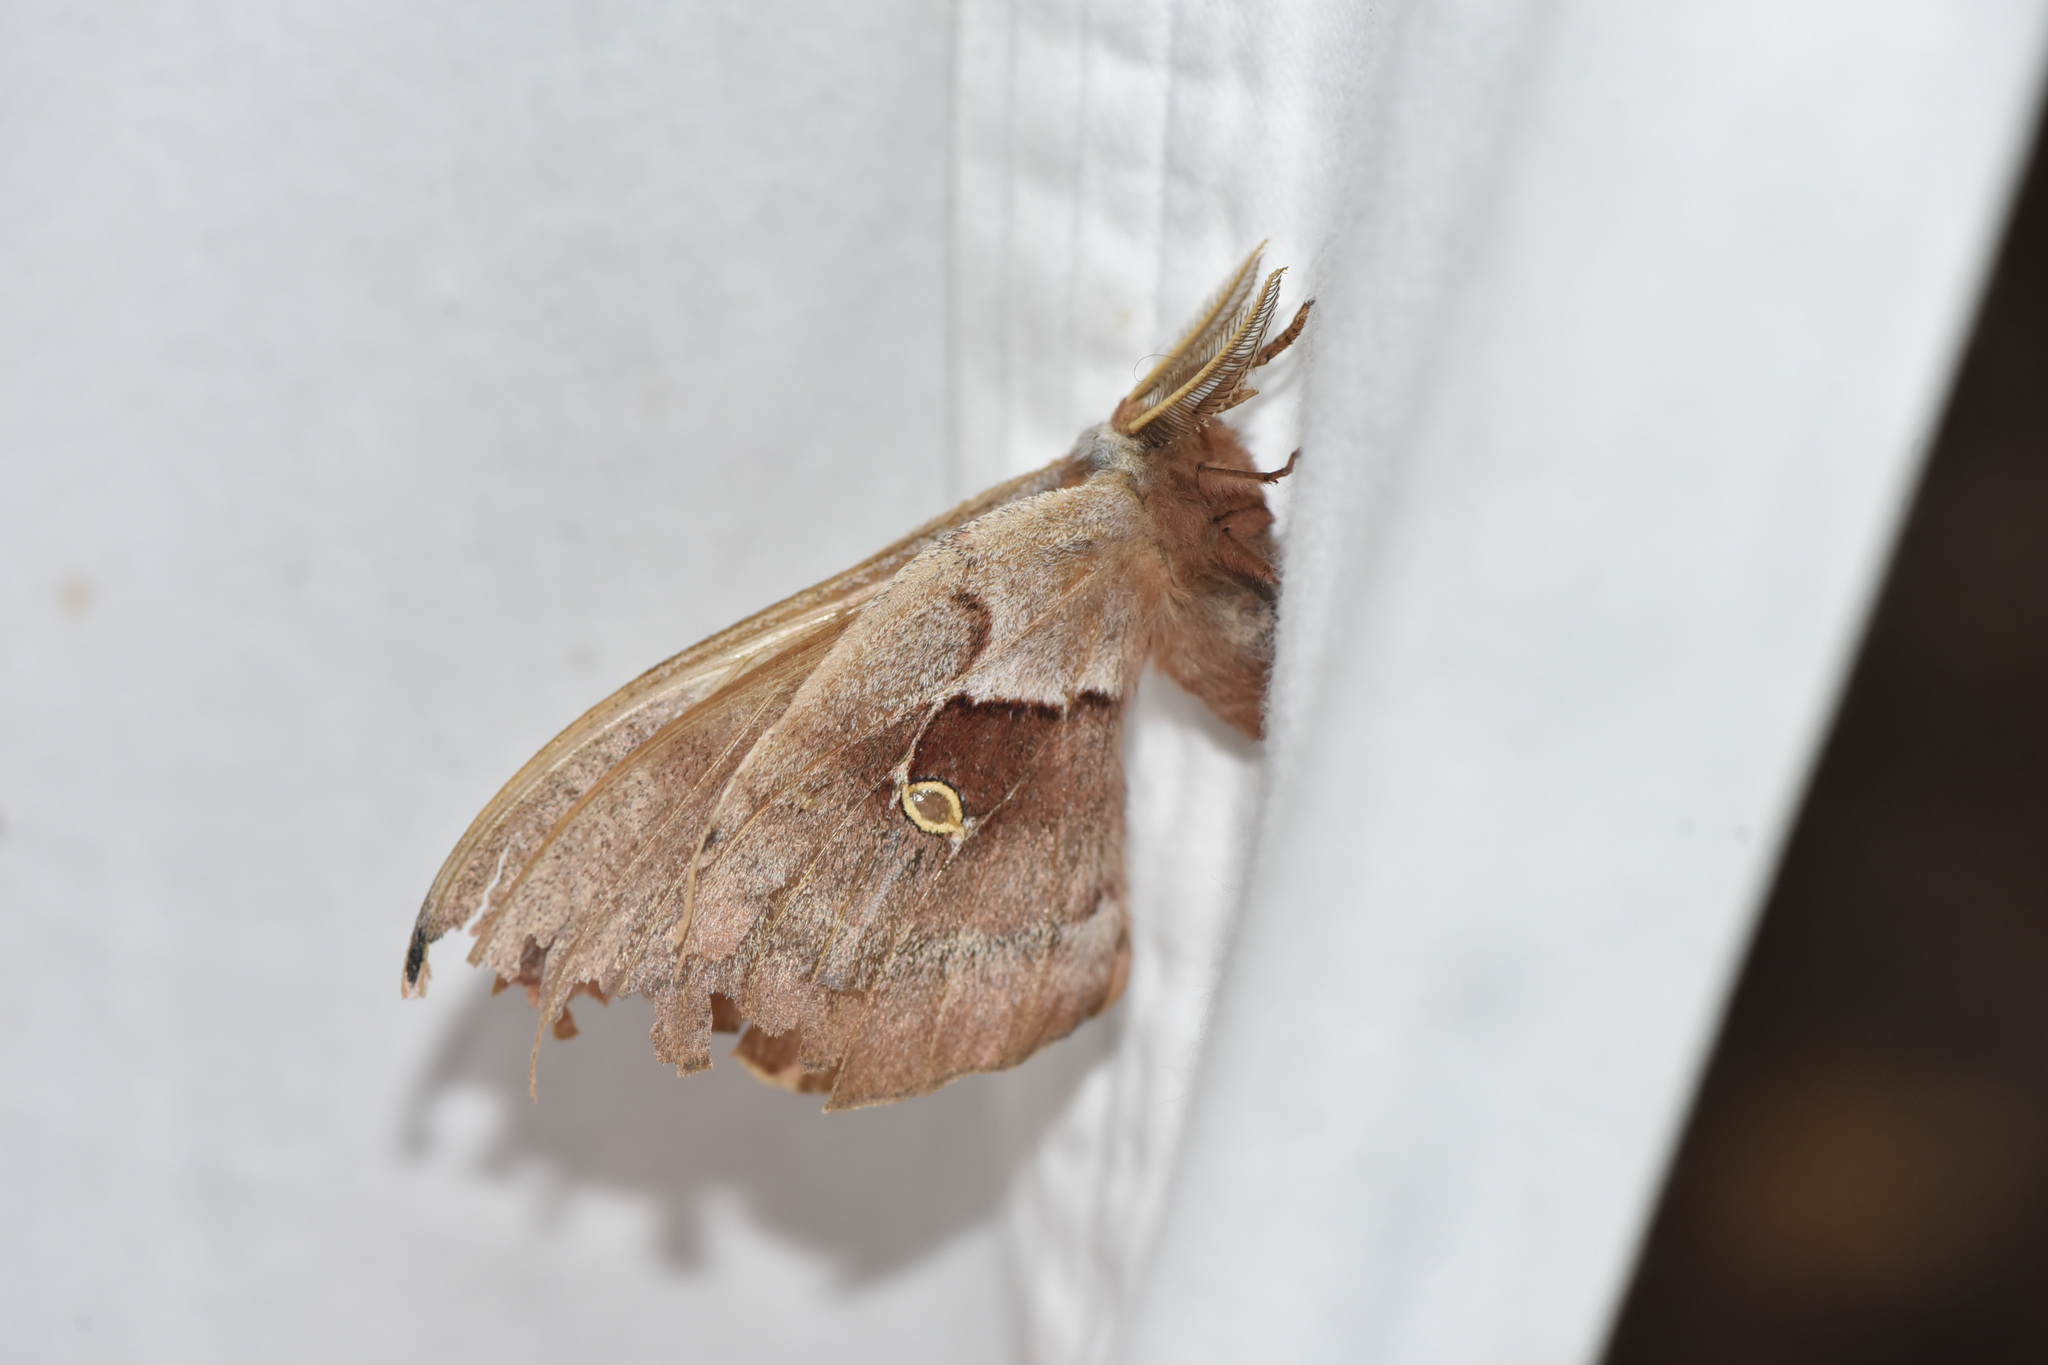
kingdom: Animalia
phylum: Arthropoda
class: Insecta
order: Lepidoptera
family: Saturniidae
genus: Antheraea
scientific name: Antheraea polyphemus
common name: Polyphemus moth
